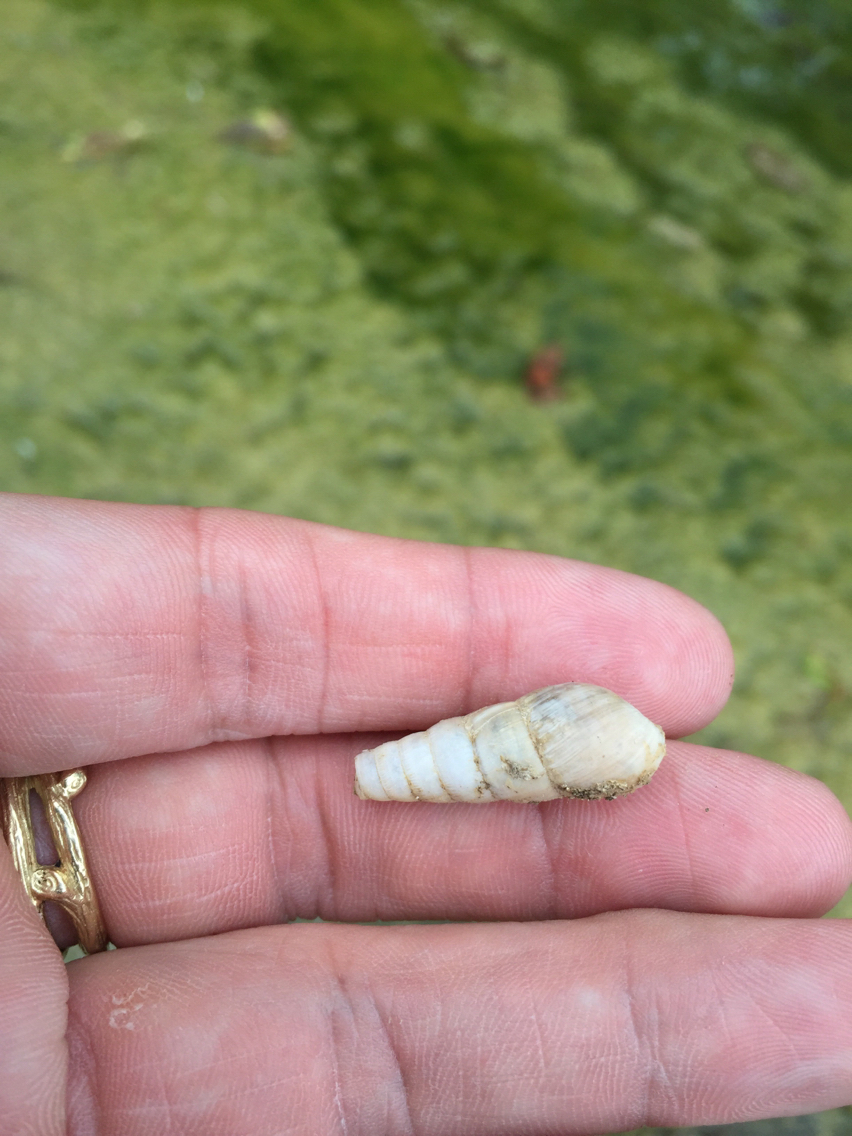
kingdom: Animalia
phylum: Mollusca
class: Gastropoda
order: Stylommatophora
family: Achatinidae
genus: Rumina
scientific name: Rumina decollata
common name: Decollate snail
